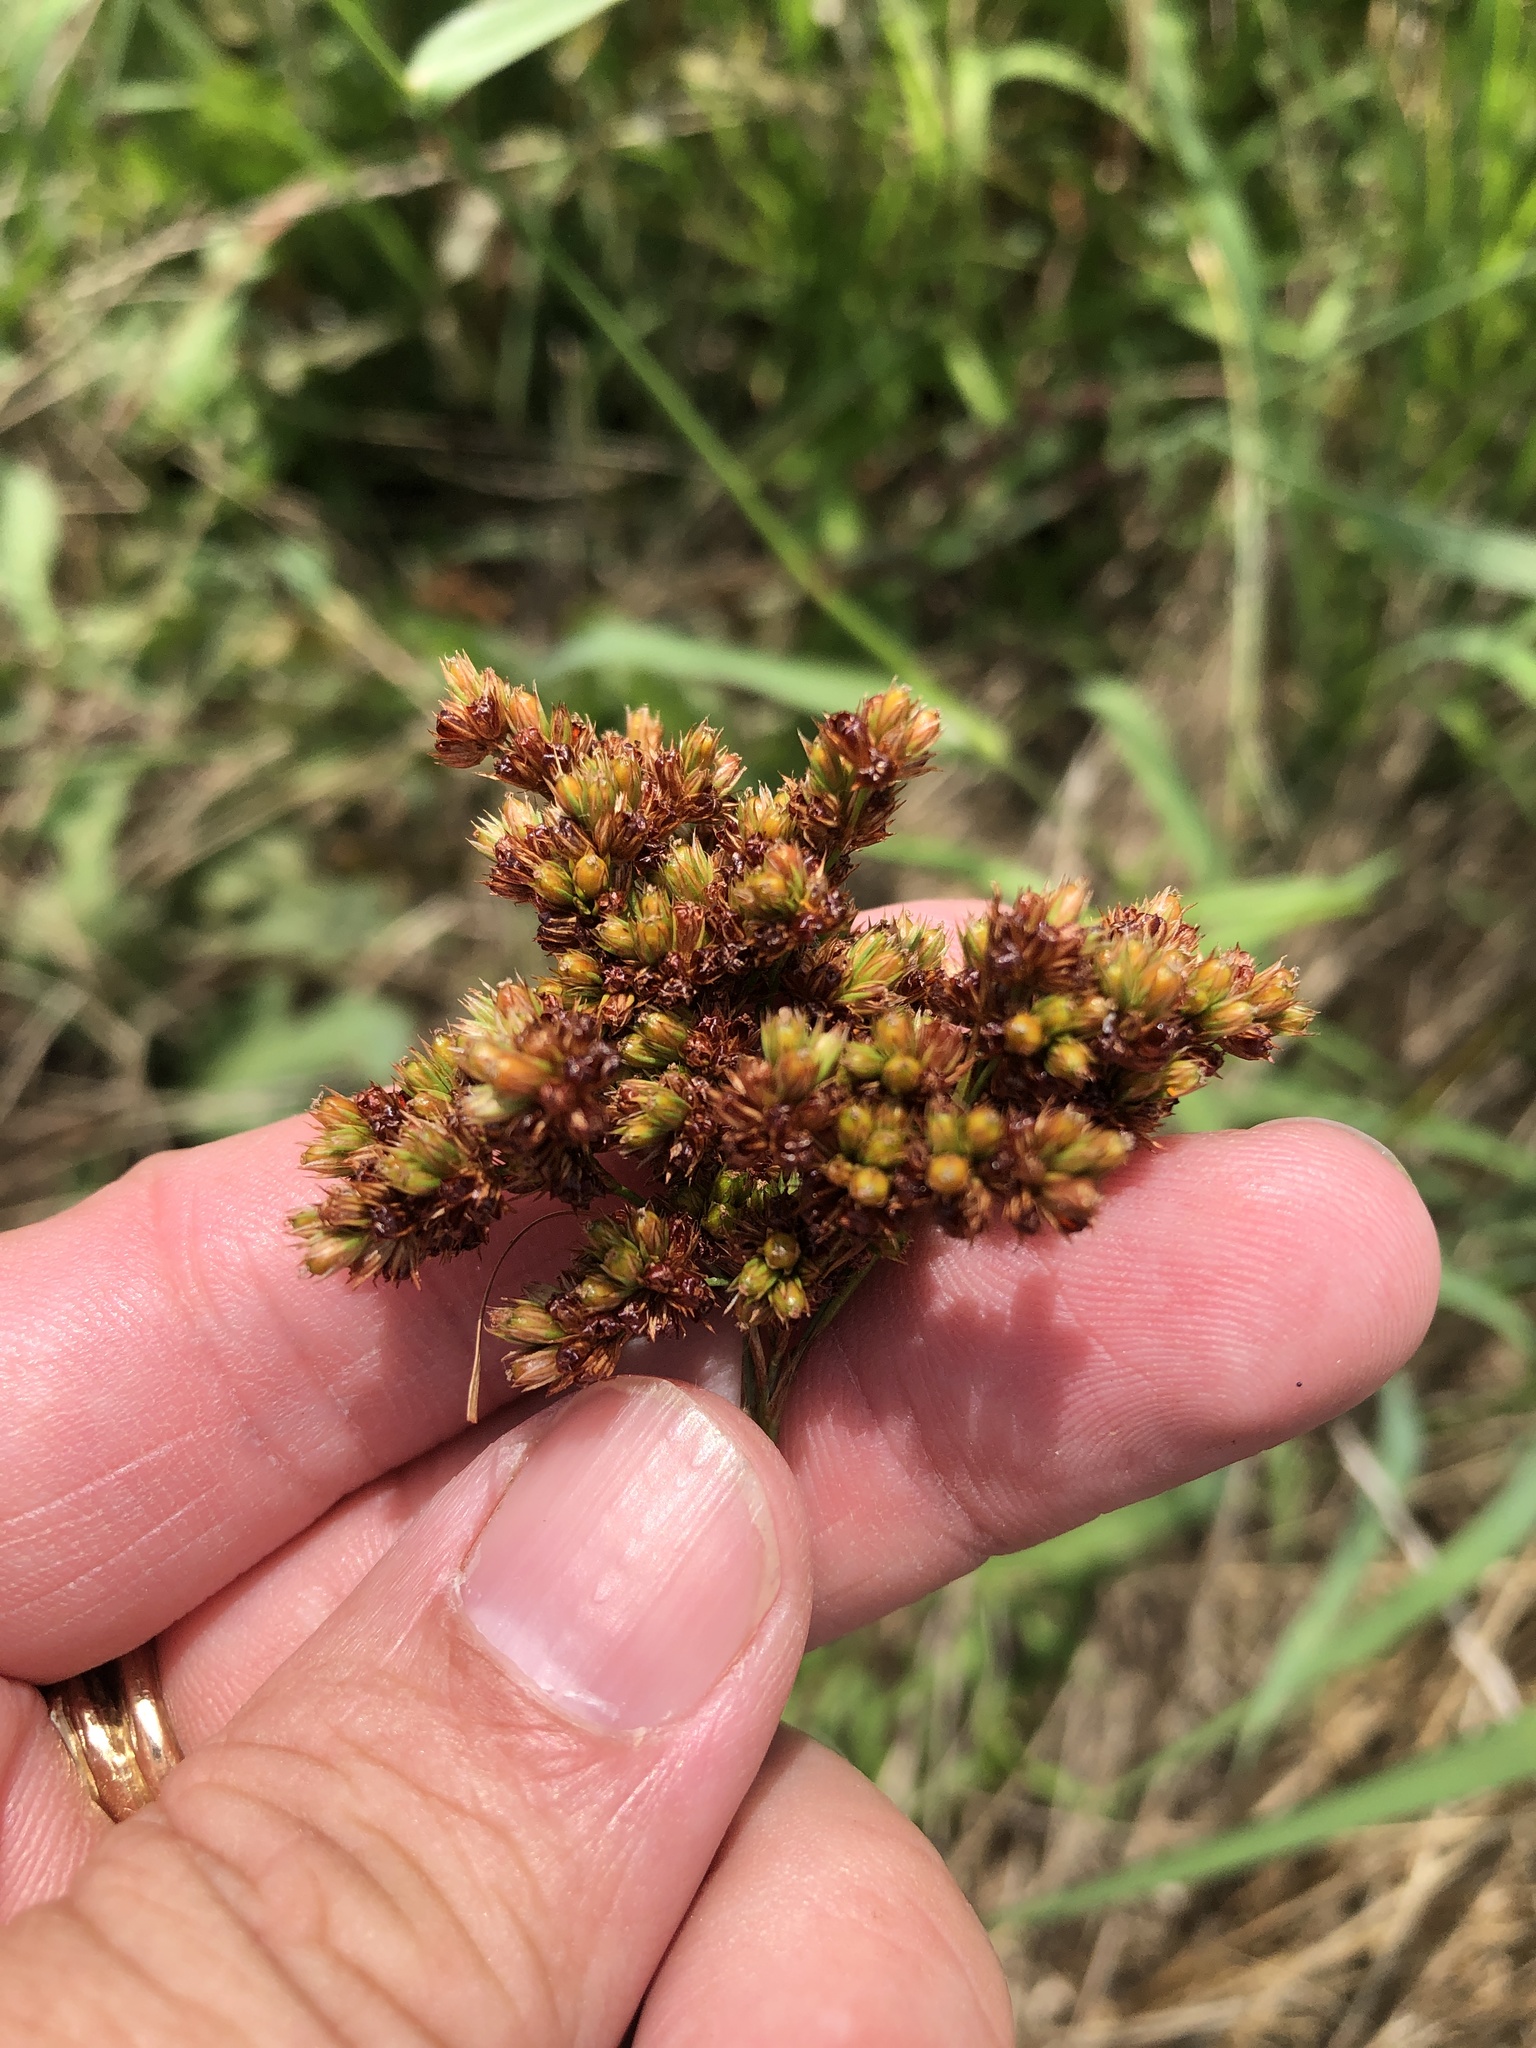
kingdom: Plantae
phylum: Tracheophyta
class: Liliopsida
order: Poales
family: Juncaceae
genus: Juncus
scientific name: Juncus marginatus
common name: Grass-leaf rush
